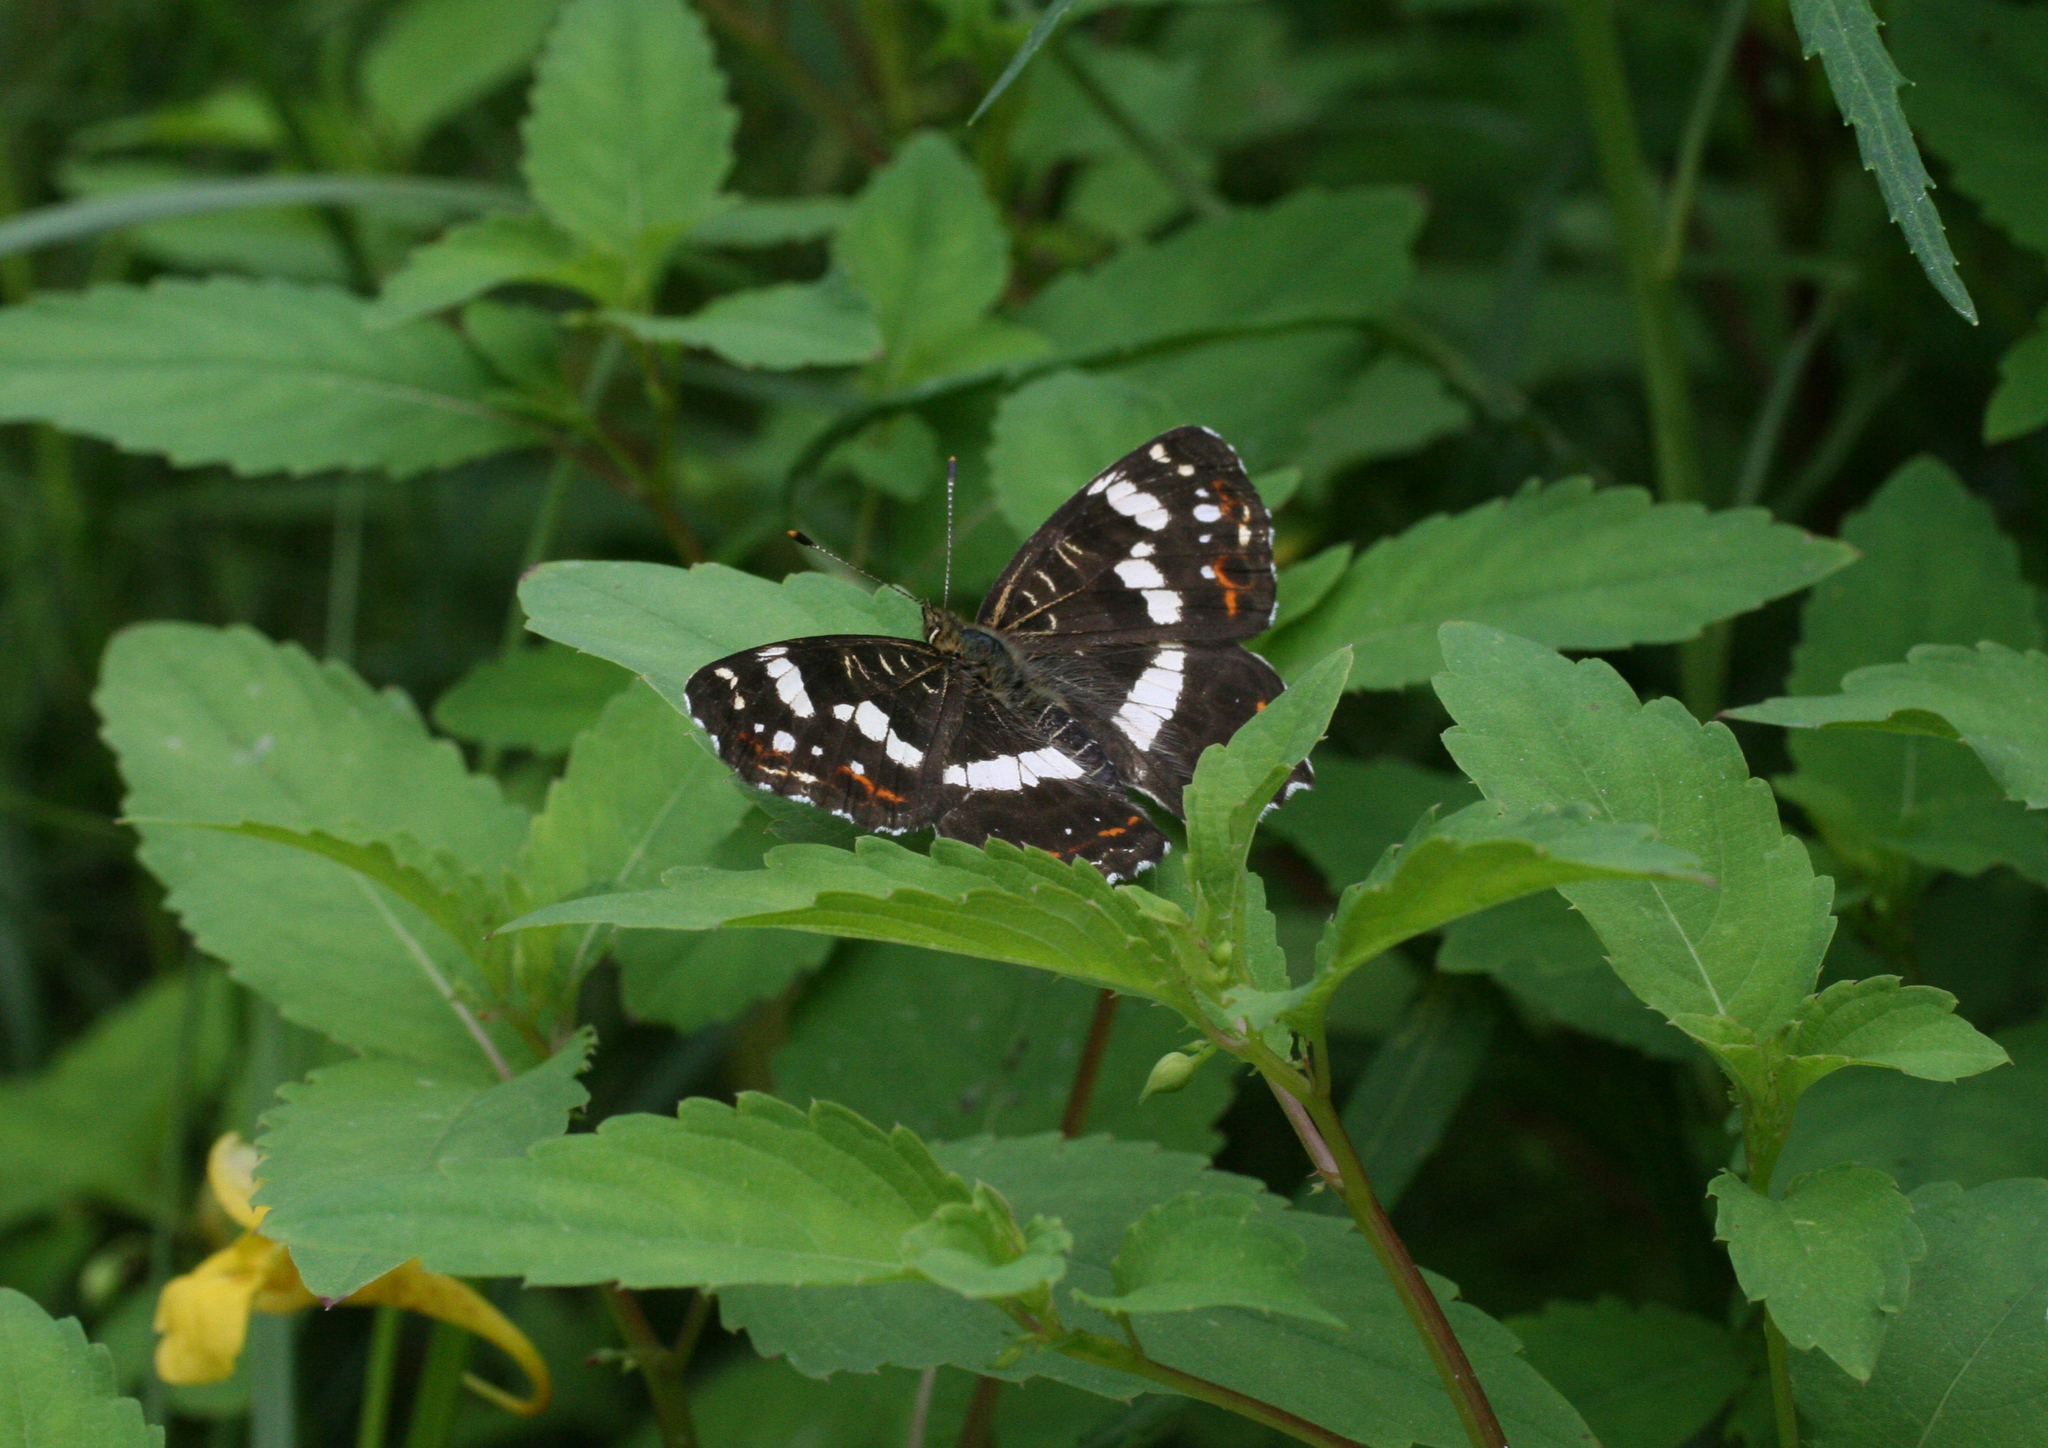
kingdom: Animalia
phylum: Arthropoda
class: Insecta
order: Lepidoptera
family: Nymphalidae
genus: Araschnia
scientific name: Araschnia levana
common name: Map butterfly
